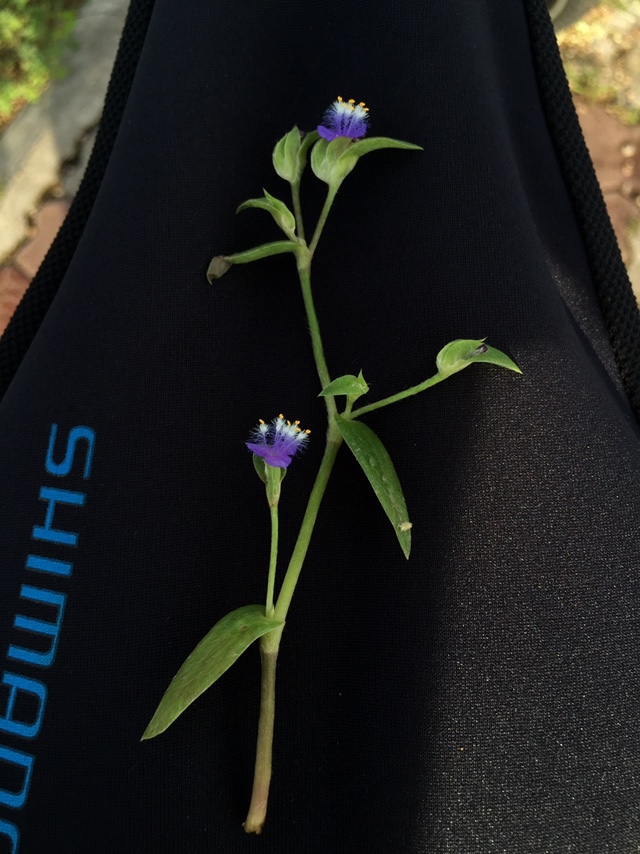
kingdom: Plantae
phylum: Tracheophyta
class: Liliopsida
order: Commelinales
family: Commelinaceae
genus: Cyanotis
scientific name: Cyanotis fasciculata
